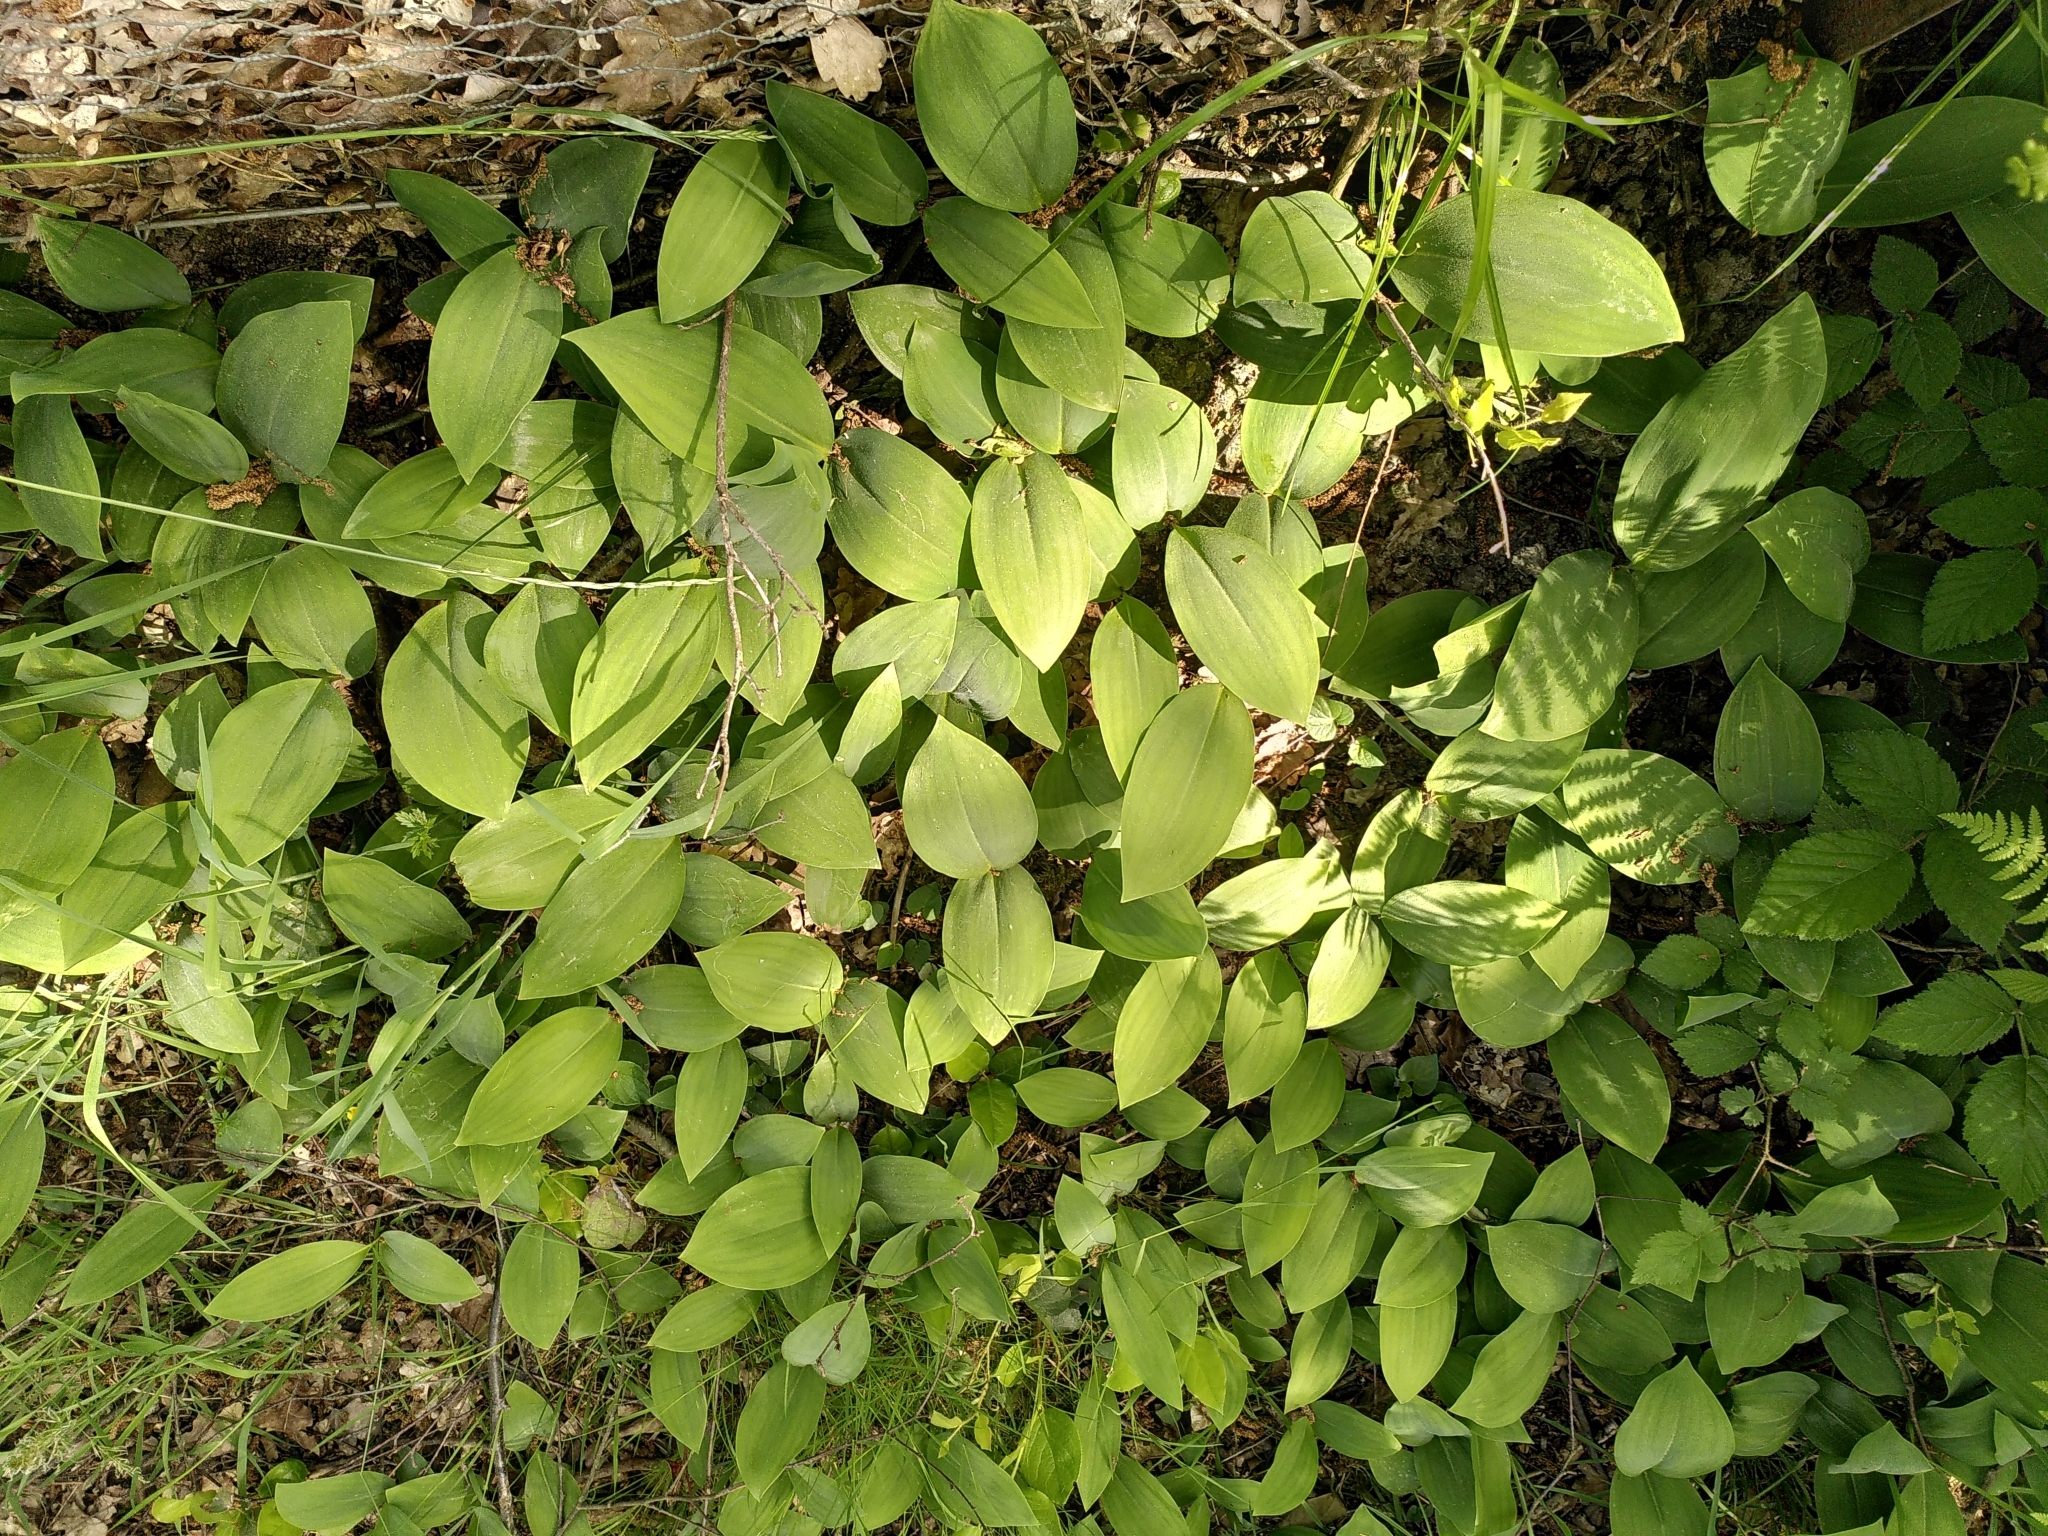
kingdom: Plantae
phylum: Tracheophyta
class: Liliopsida
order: Asparagales
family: Asparagaceae
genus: Convallaria
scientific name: Convallaria majalis
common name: Lily-of-the-valley
